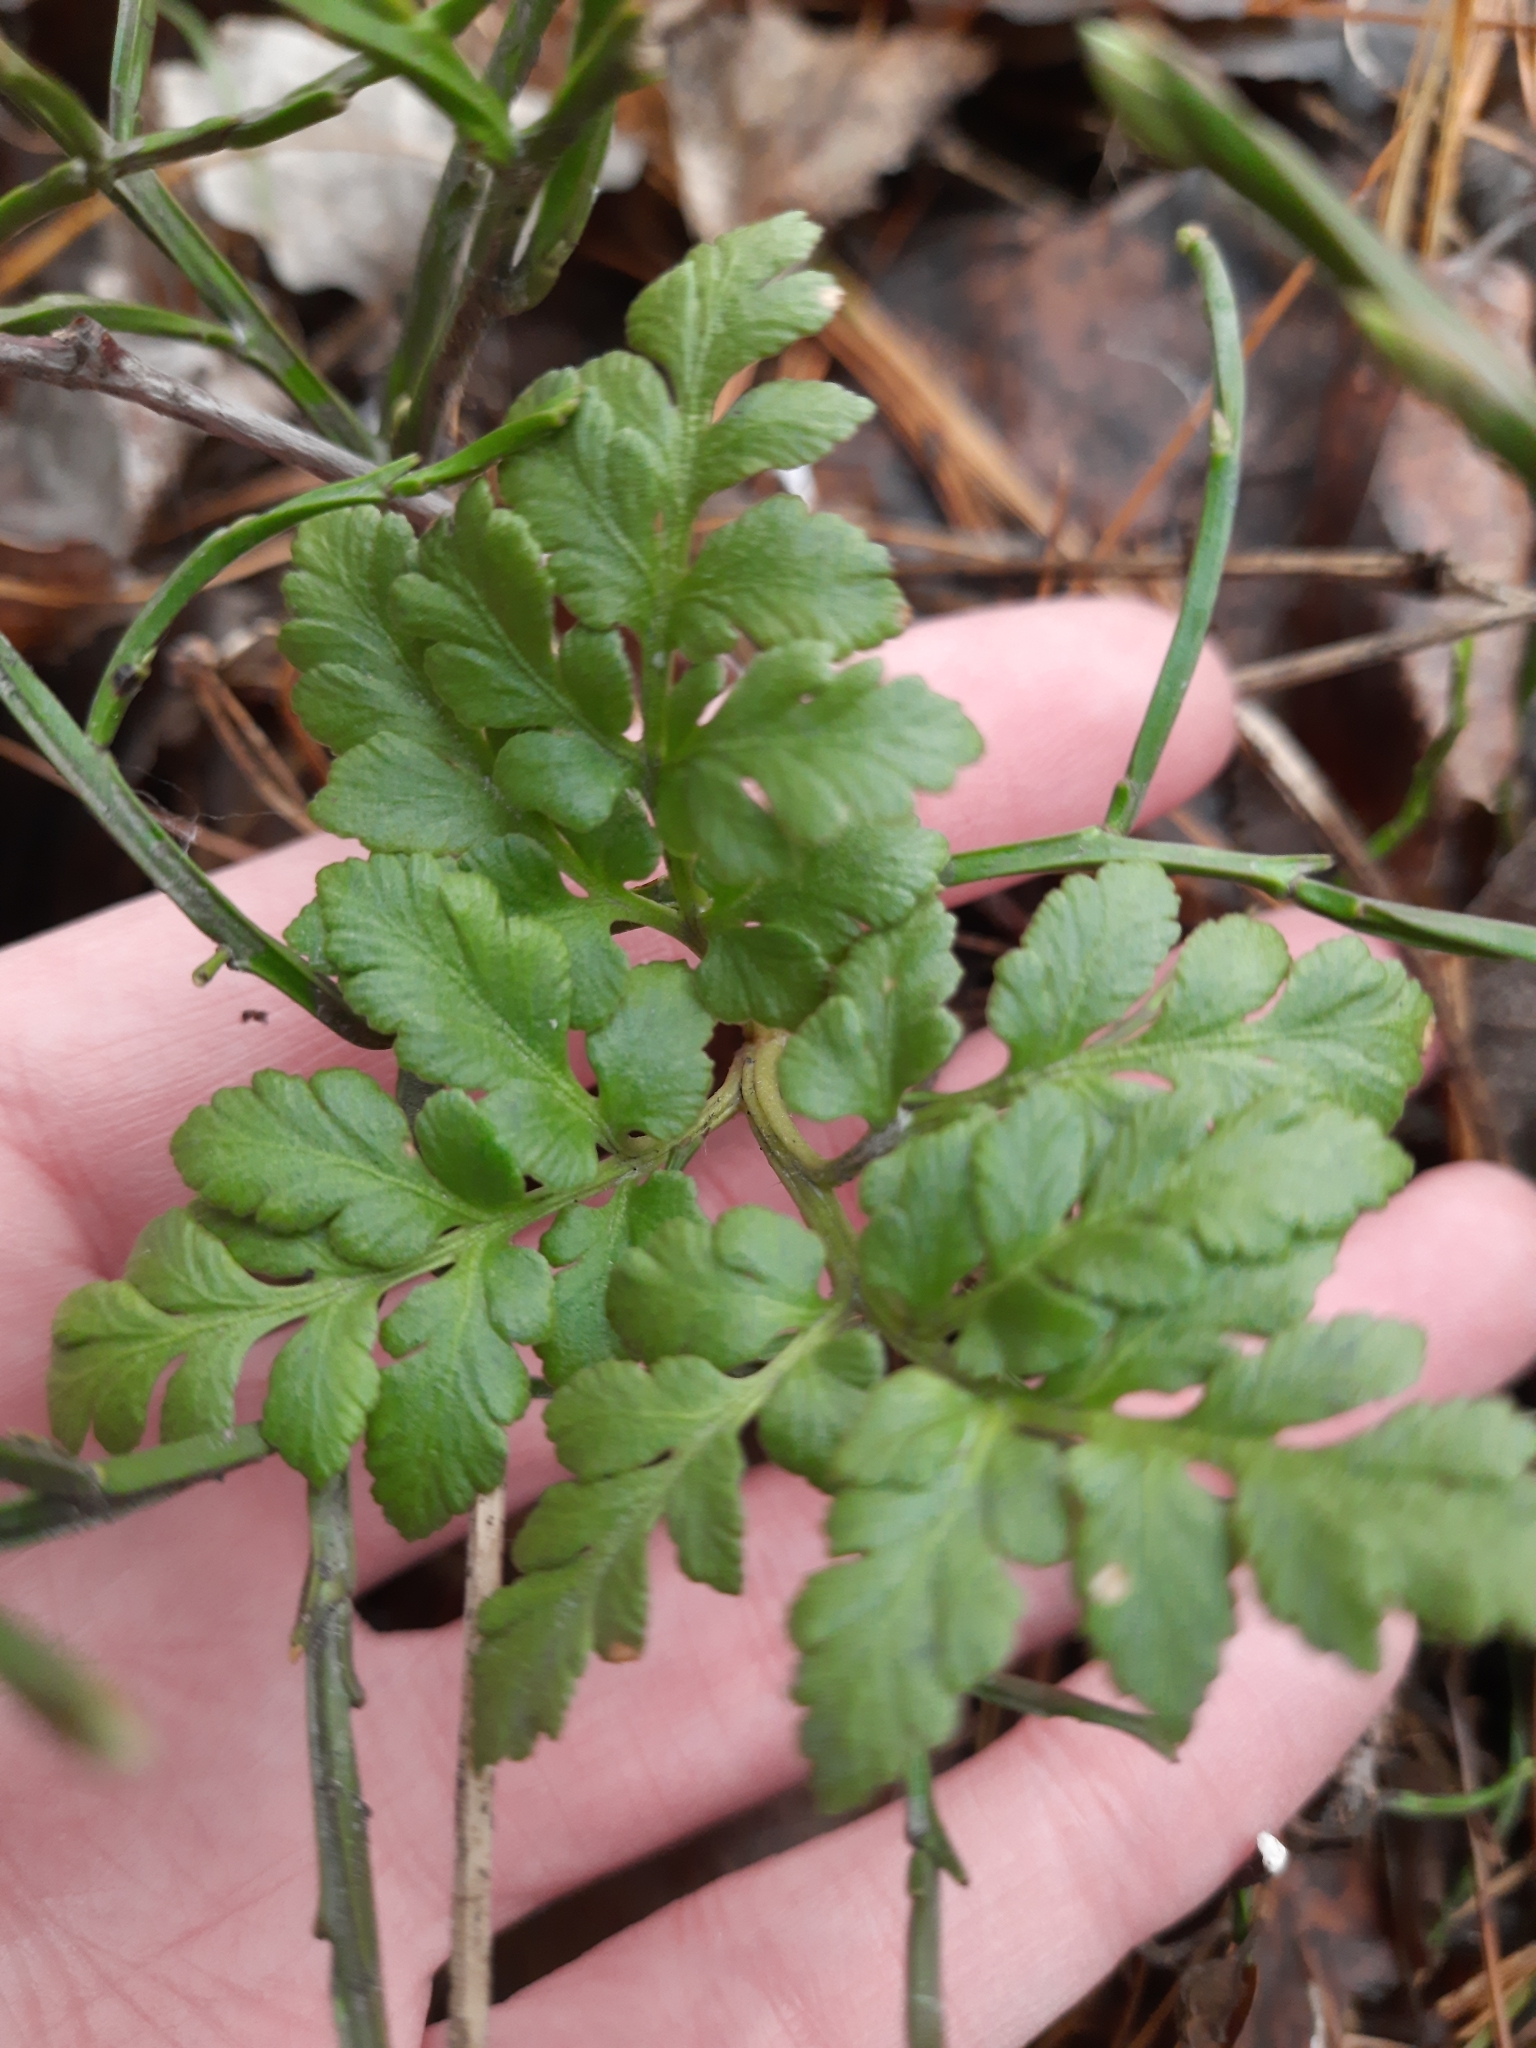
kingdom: Plantae
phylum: Tracheophyta
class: Polypodiopsida
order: Ophioglossales
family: Ophioglossaceae
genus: Sceptridium
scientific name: Sceptridium multifidum
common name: Leathery grape fern
